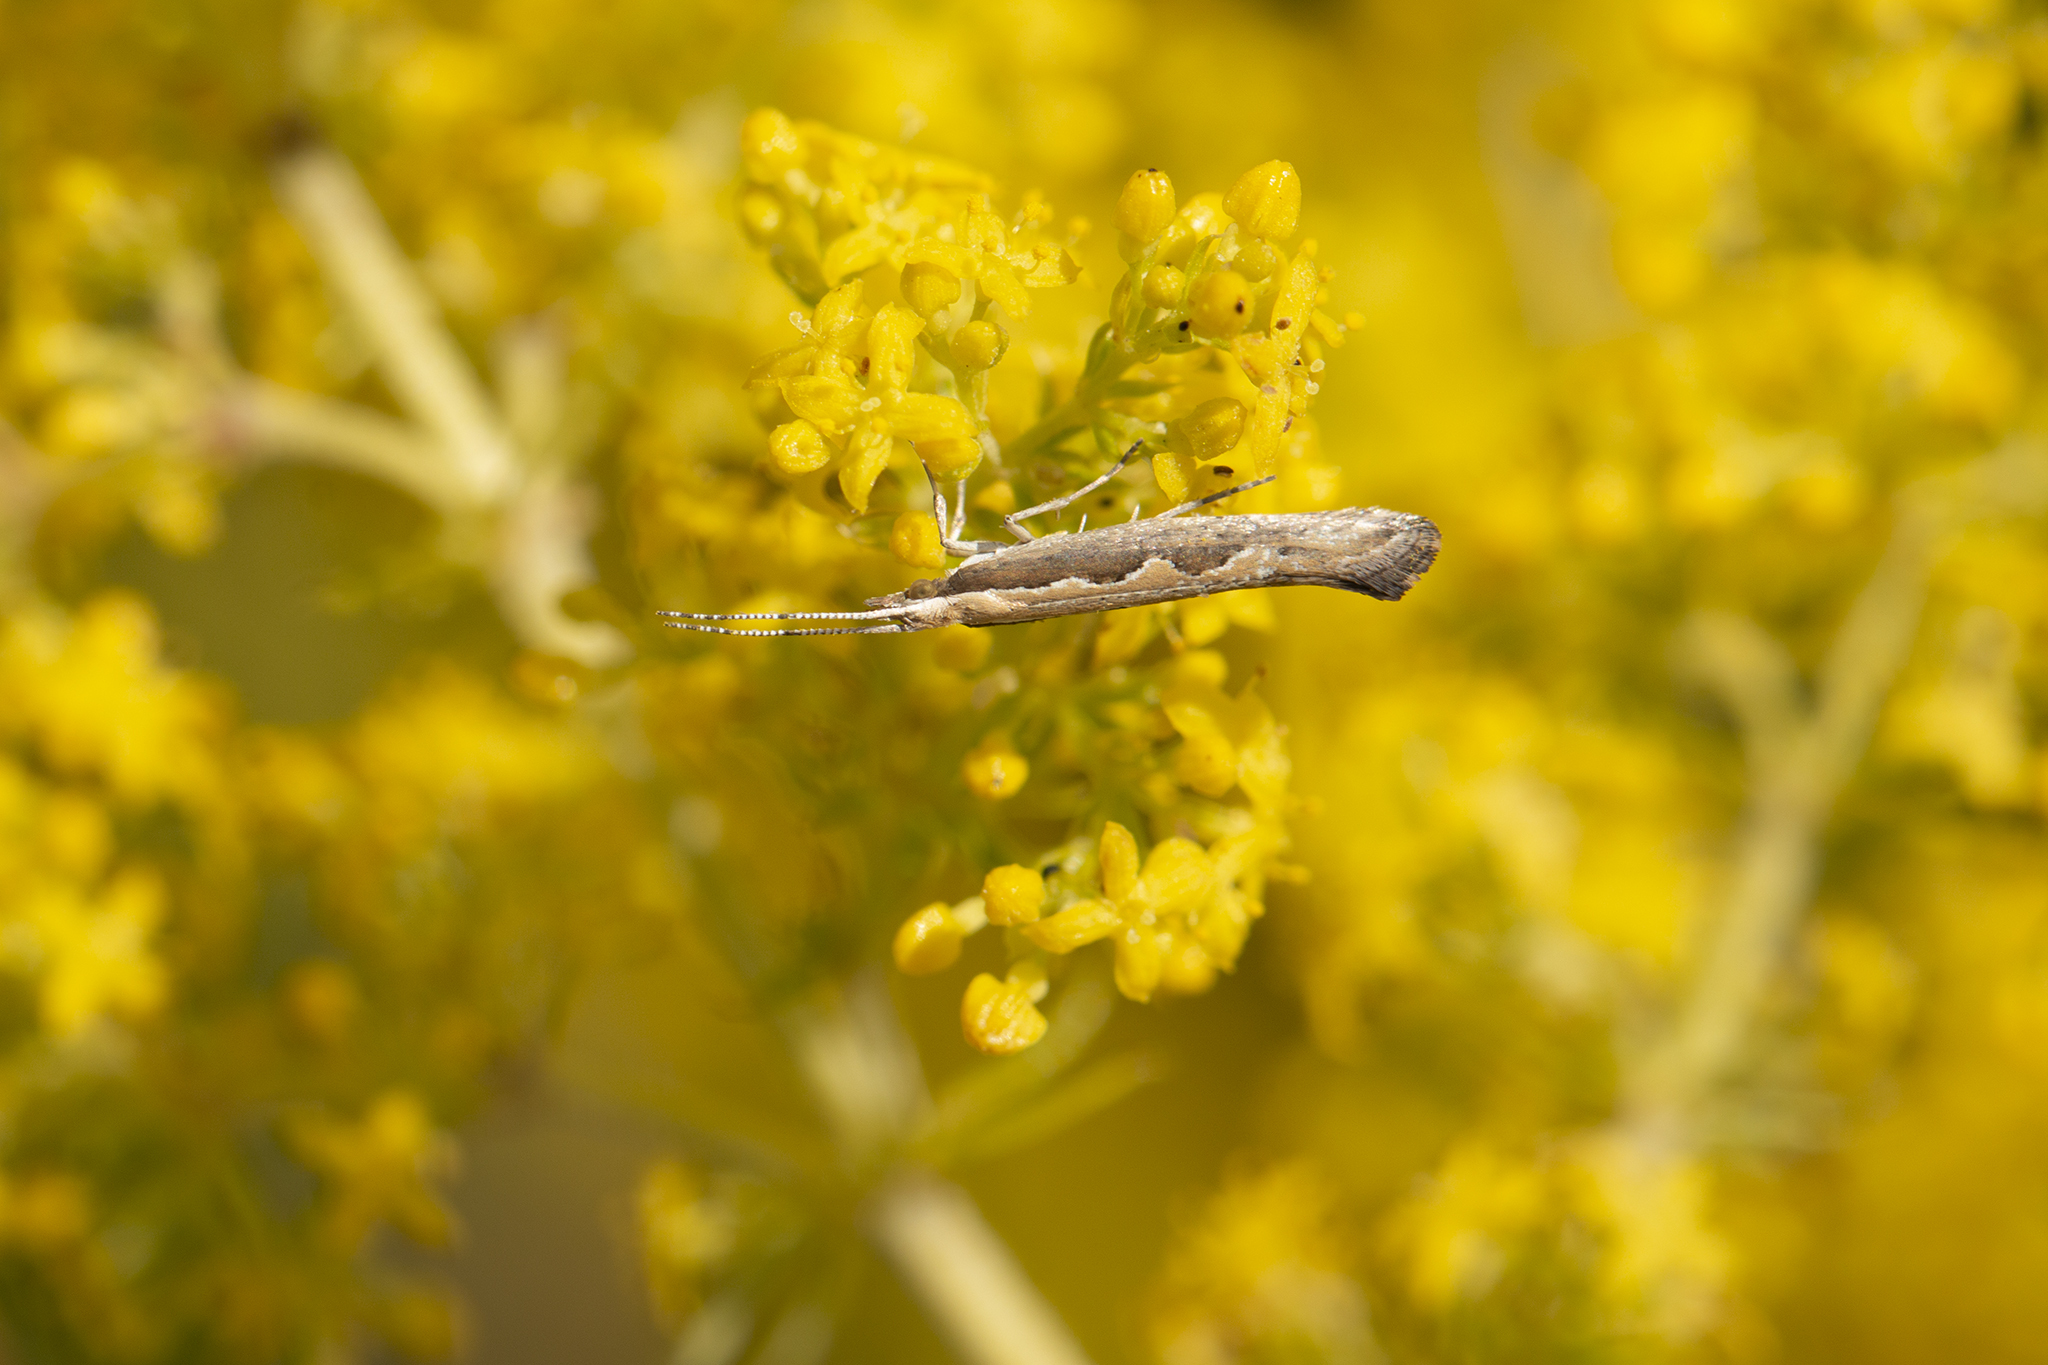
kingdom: Animalia
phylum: Arthropoda
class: Insecta
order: Lepidoptera
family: Plutellidae
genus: Plutella
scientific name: Plutella xylostella
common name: Diamond-back moth
